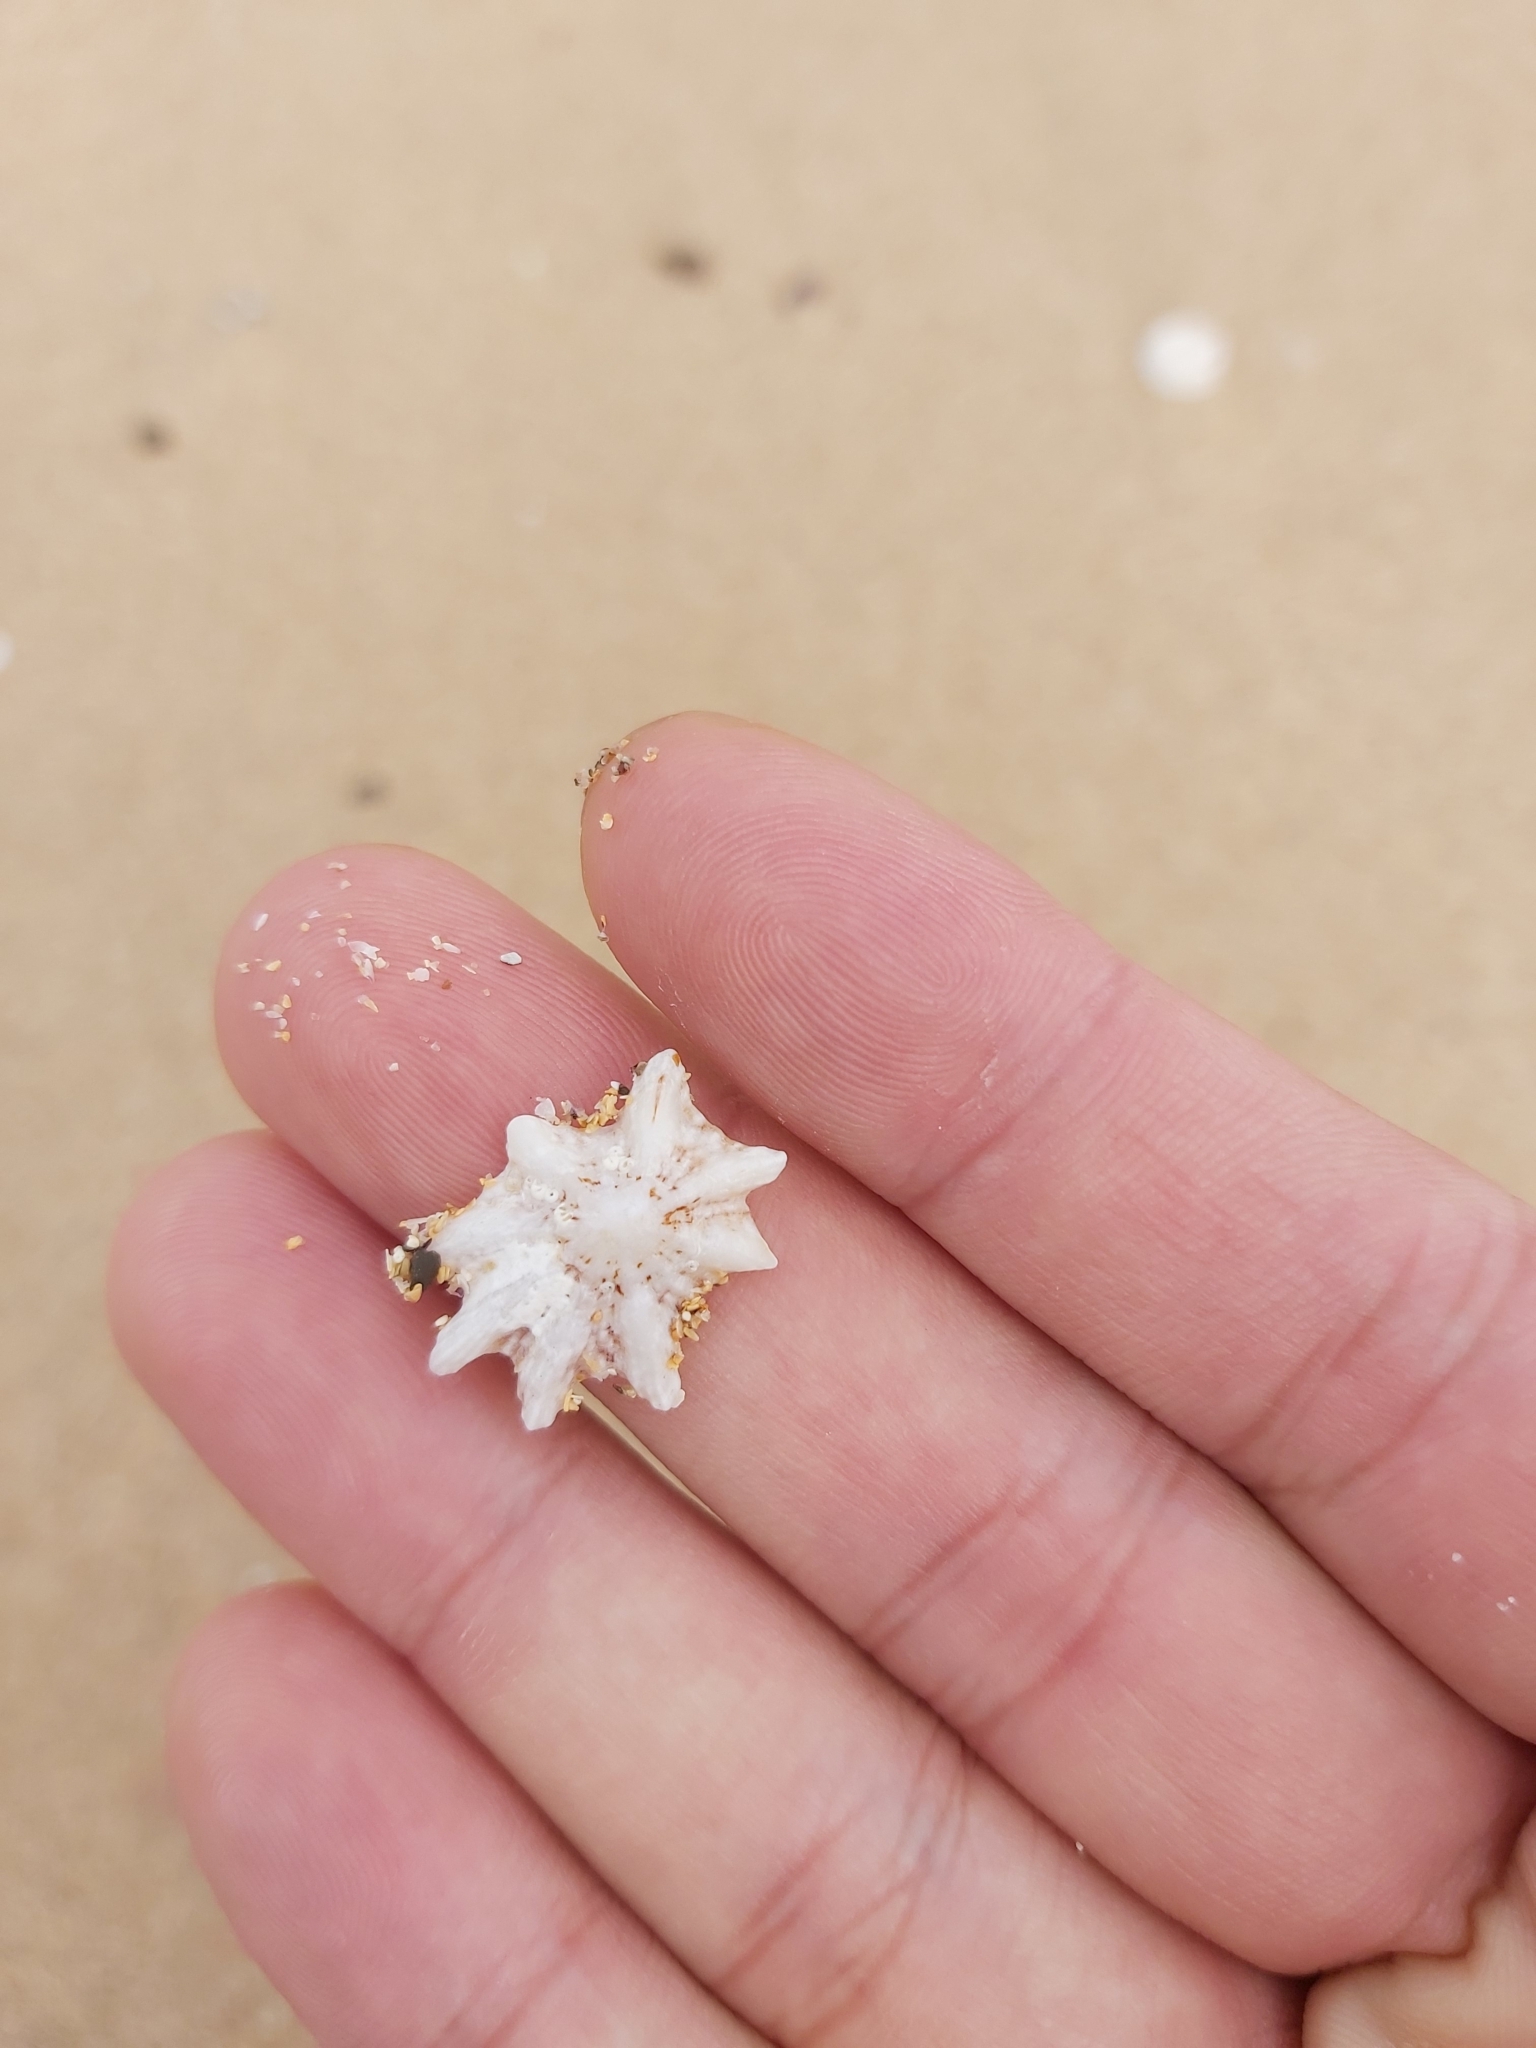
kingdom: Animalia
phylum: Mollusca
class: Gastropoda
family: Patellidae
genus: Scutellastra
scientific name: Scutellastra chapmani
